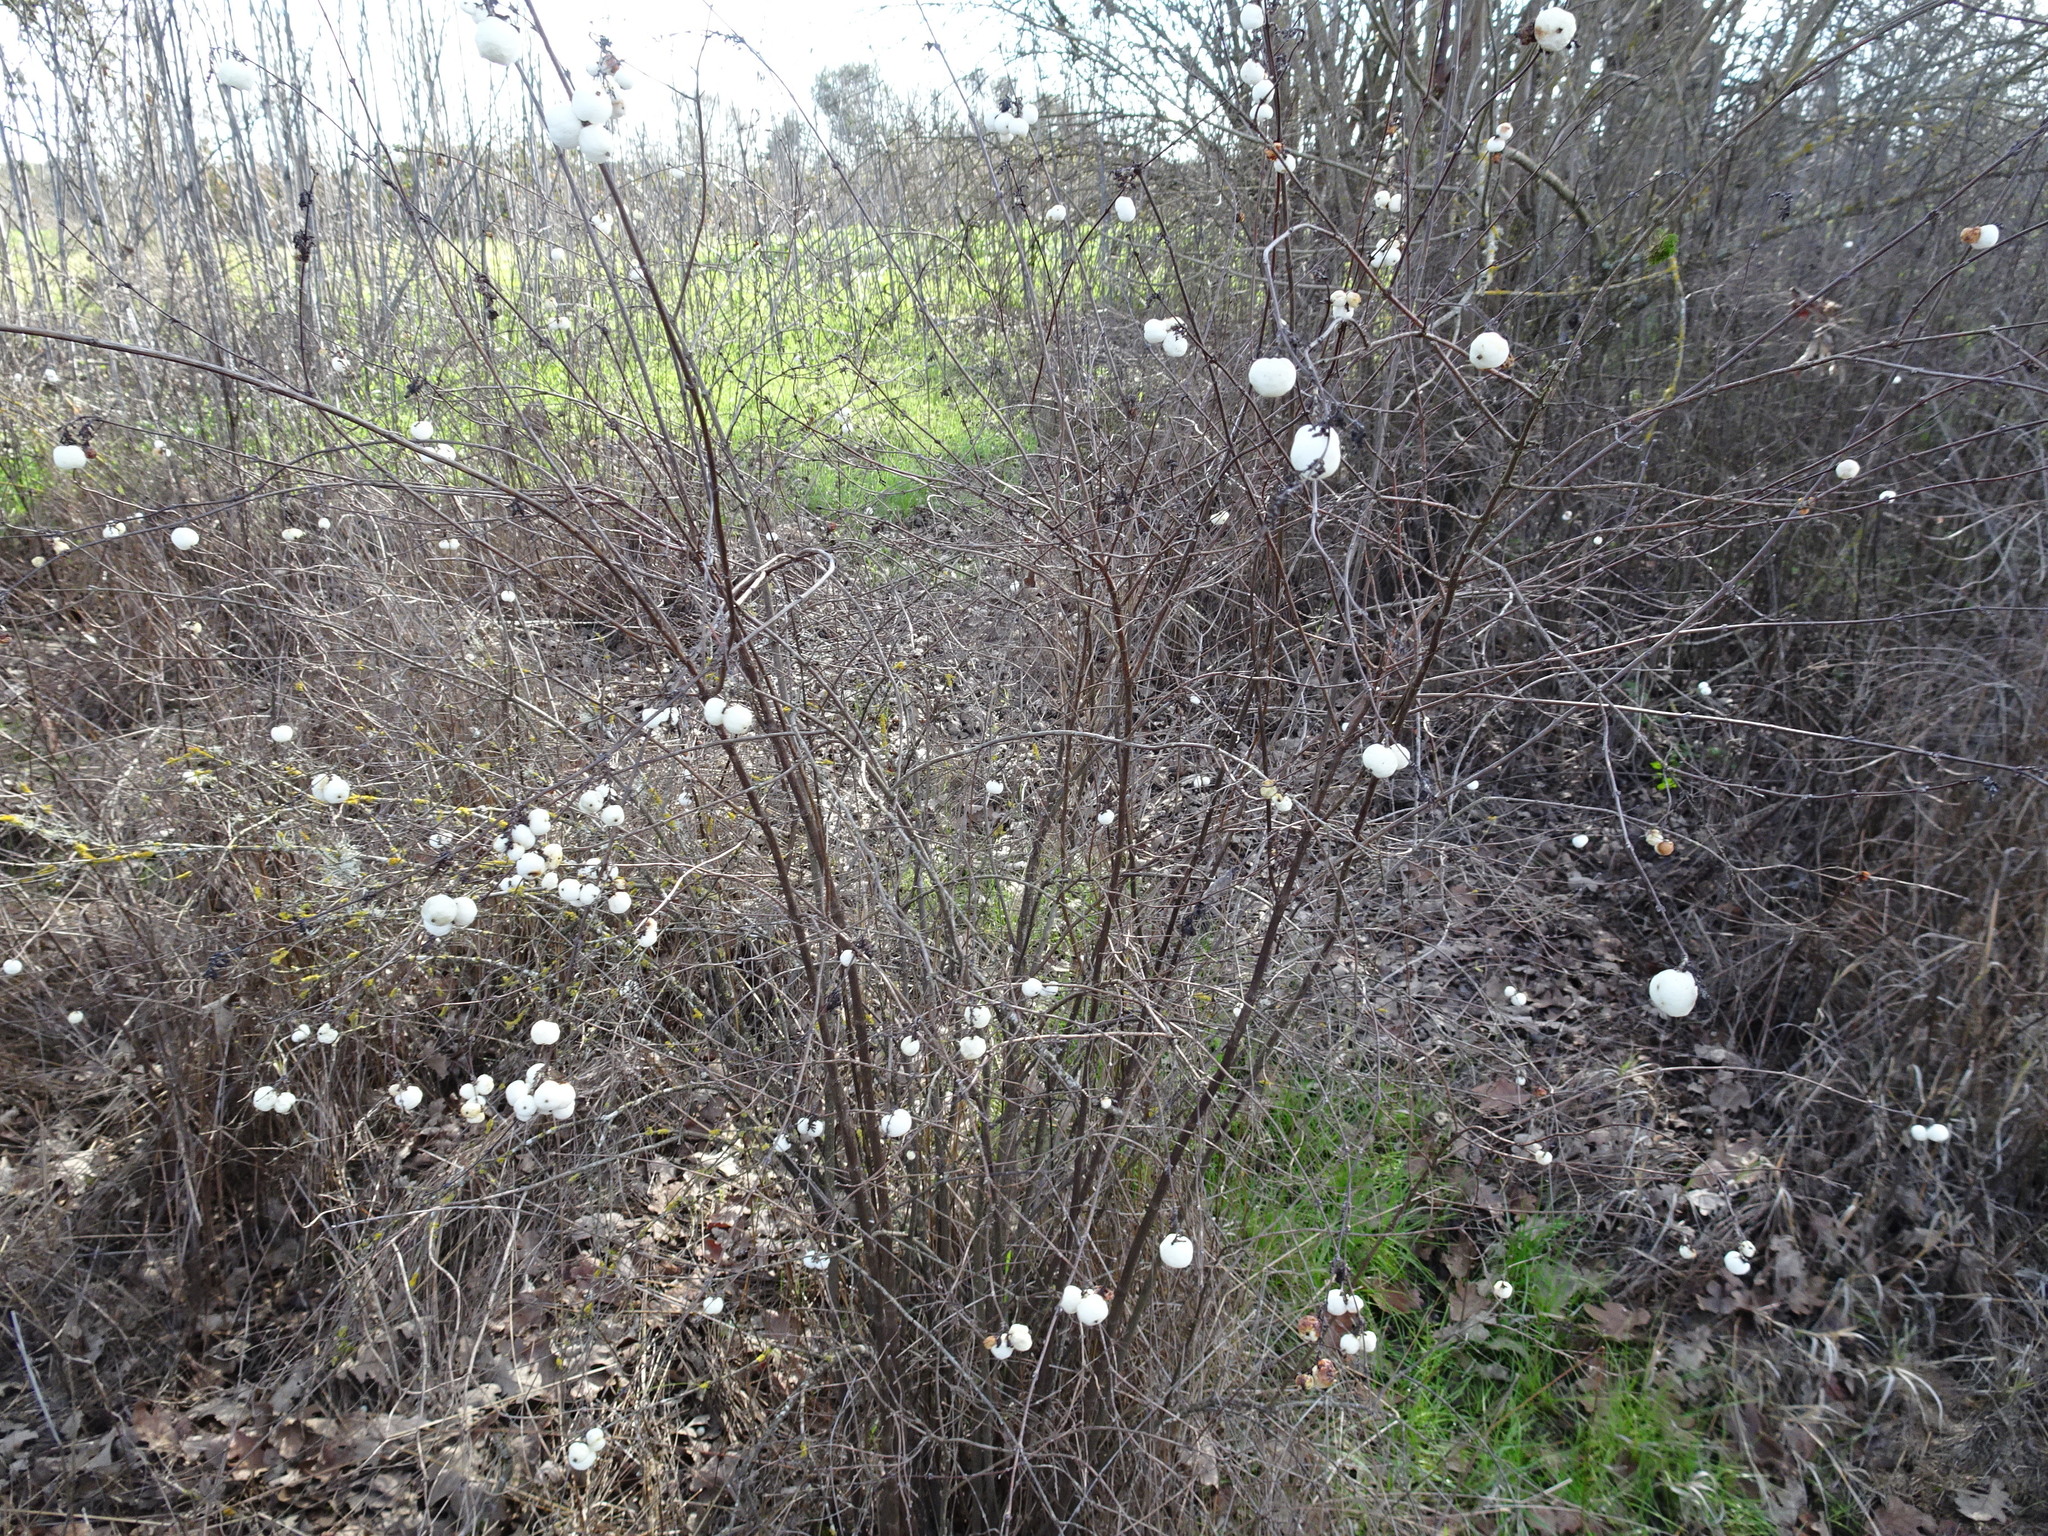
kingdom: Plantae
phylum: Tracheophyta
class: Magnoliopsida
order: Dipsacales
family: Caprifoliaceae
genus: Symphoricarpos
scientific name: Symphoricarpos albus
